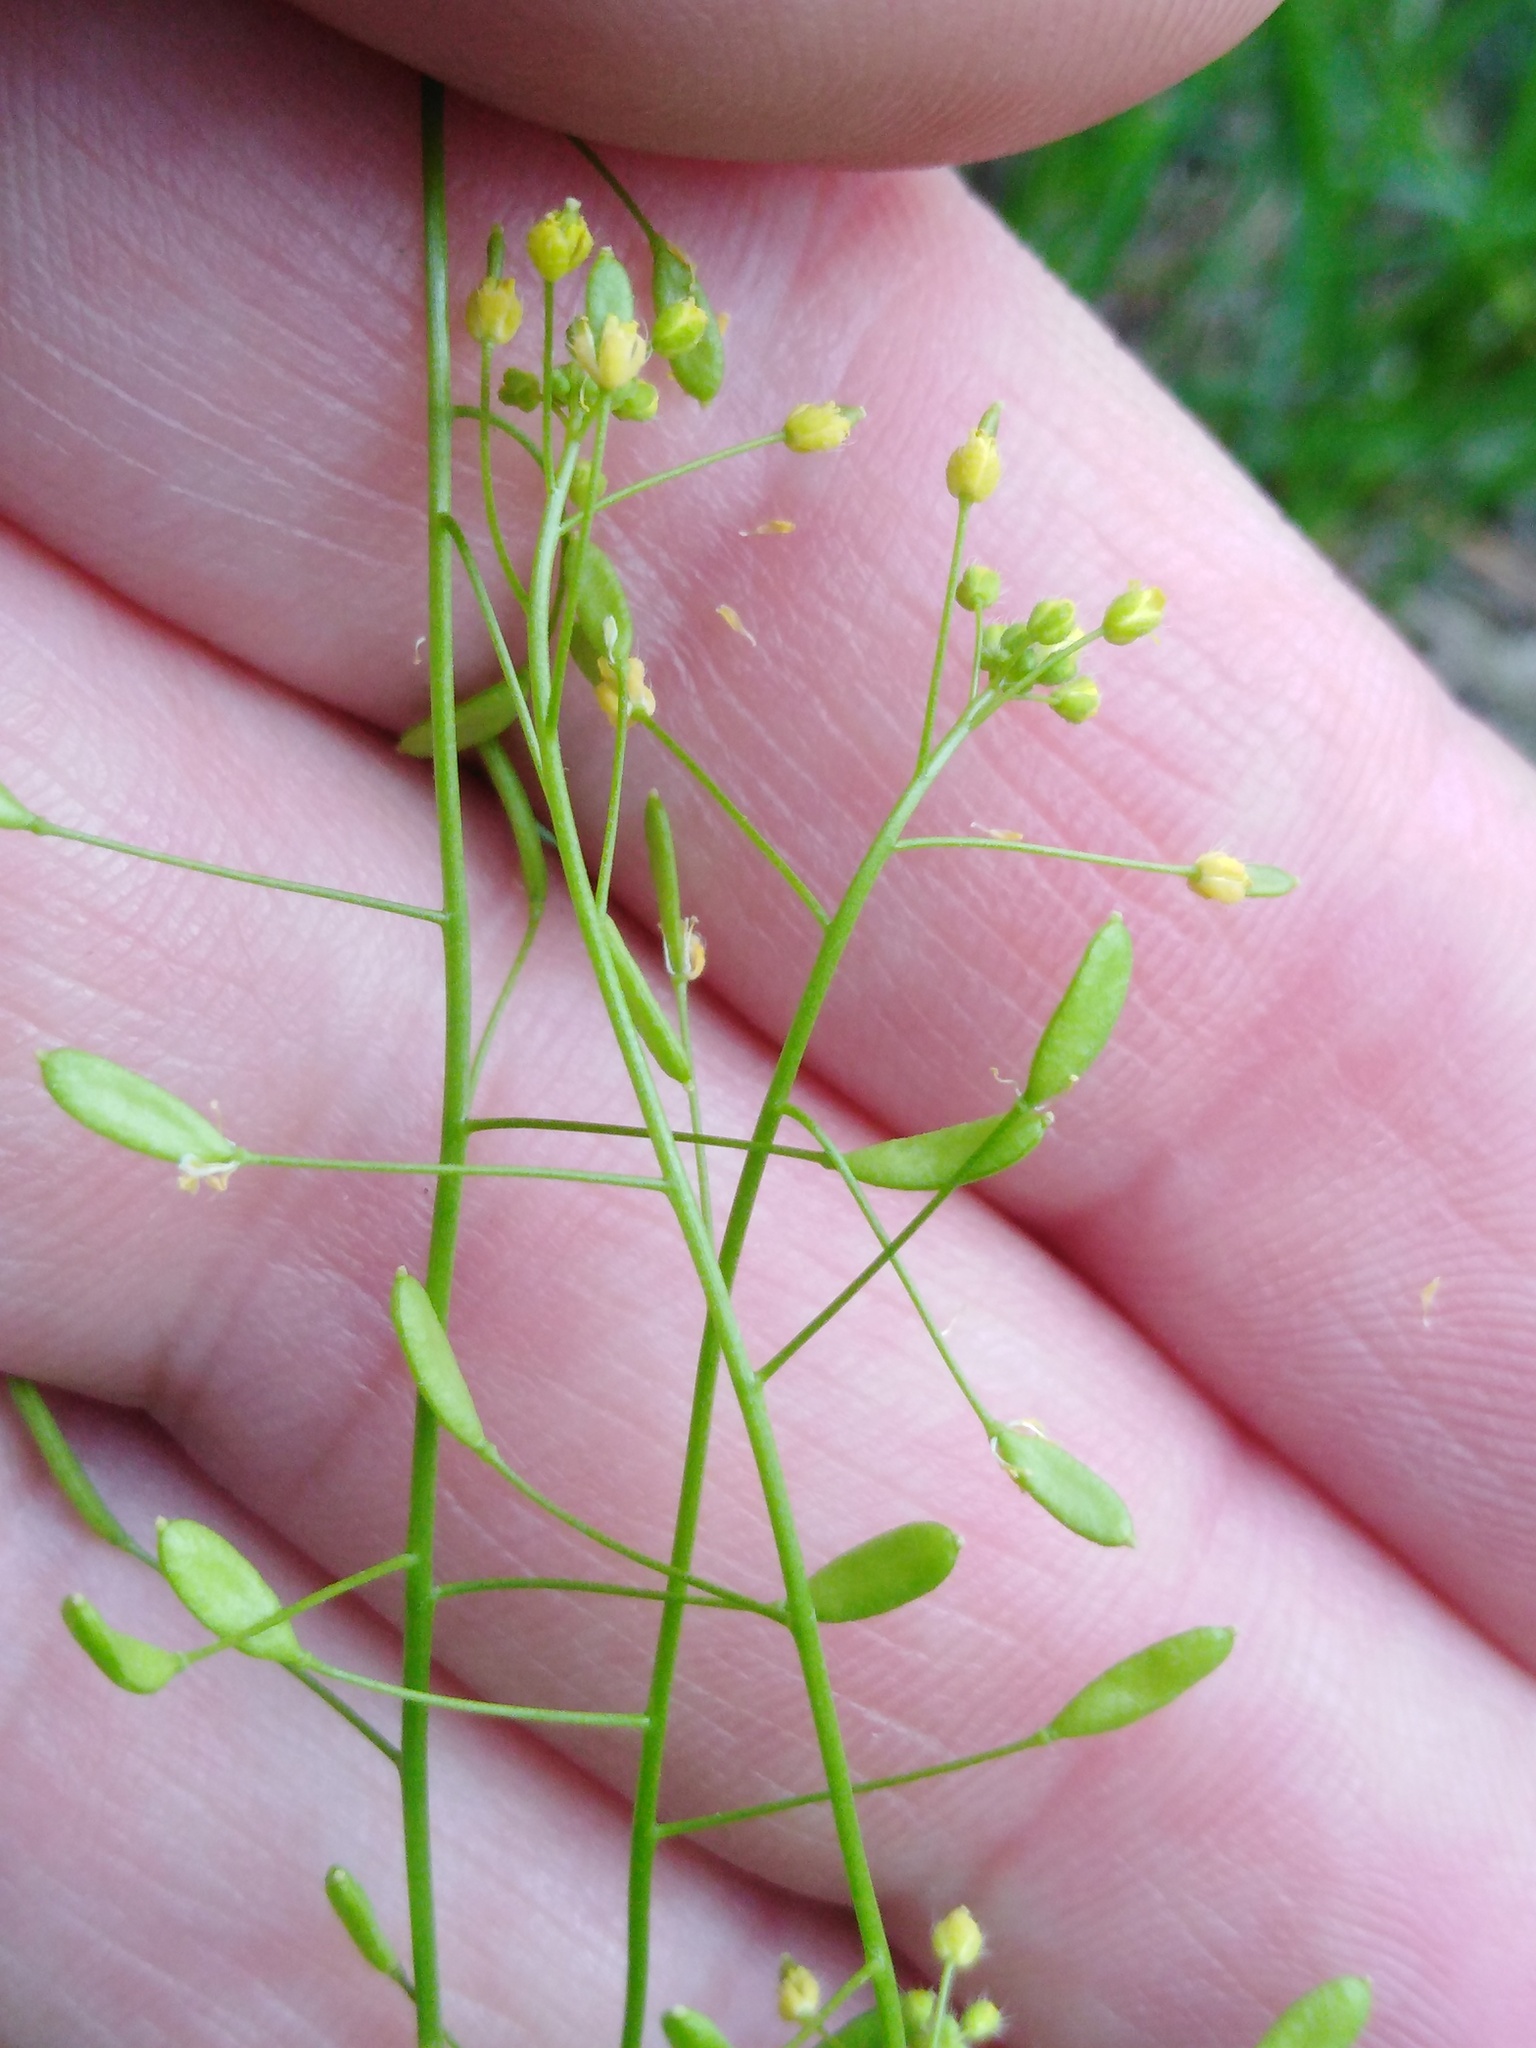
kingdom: Plantae
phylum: Tracheophyta
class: Magnoliopsida
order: Brassicales
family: Brassicaceae
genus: Draba
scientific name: Draba nemorosa
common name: Wood whitlow-grass
